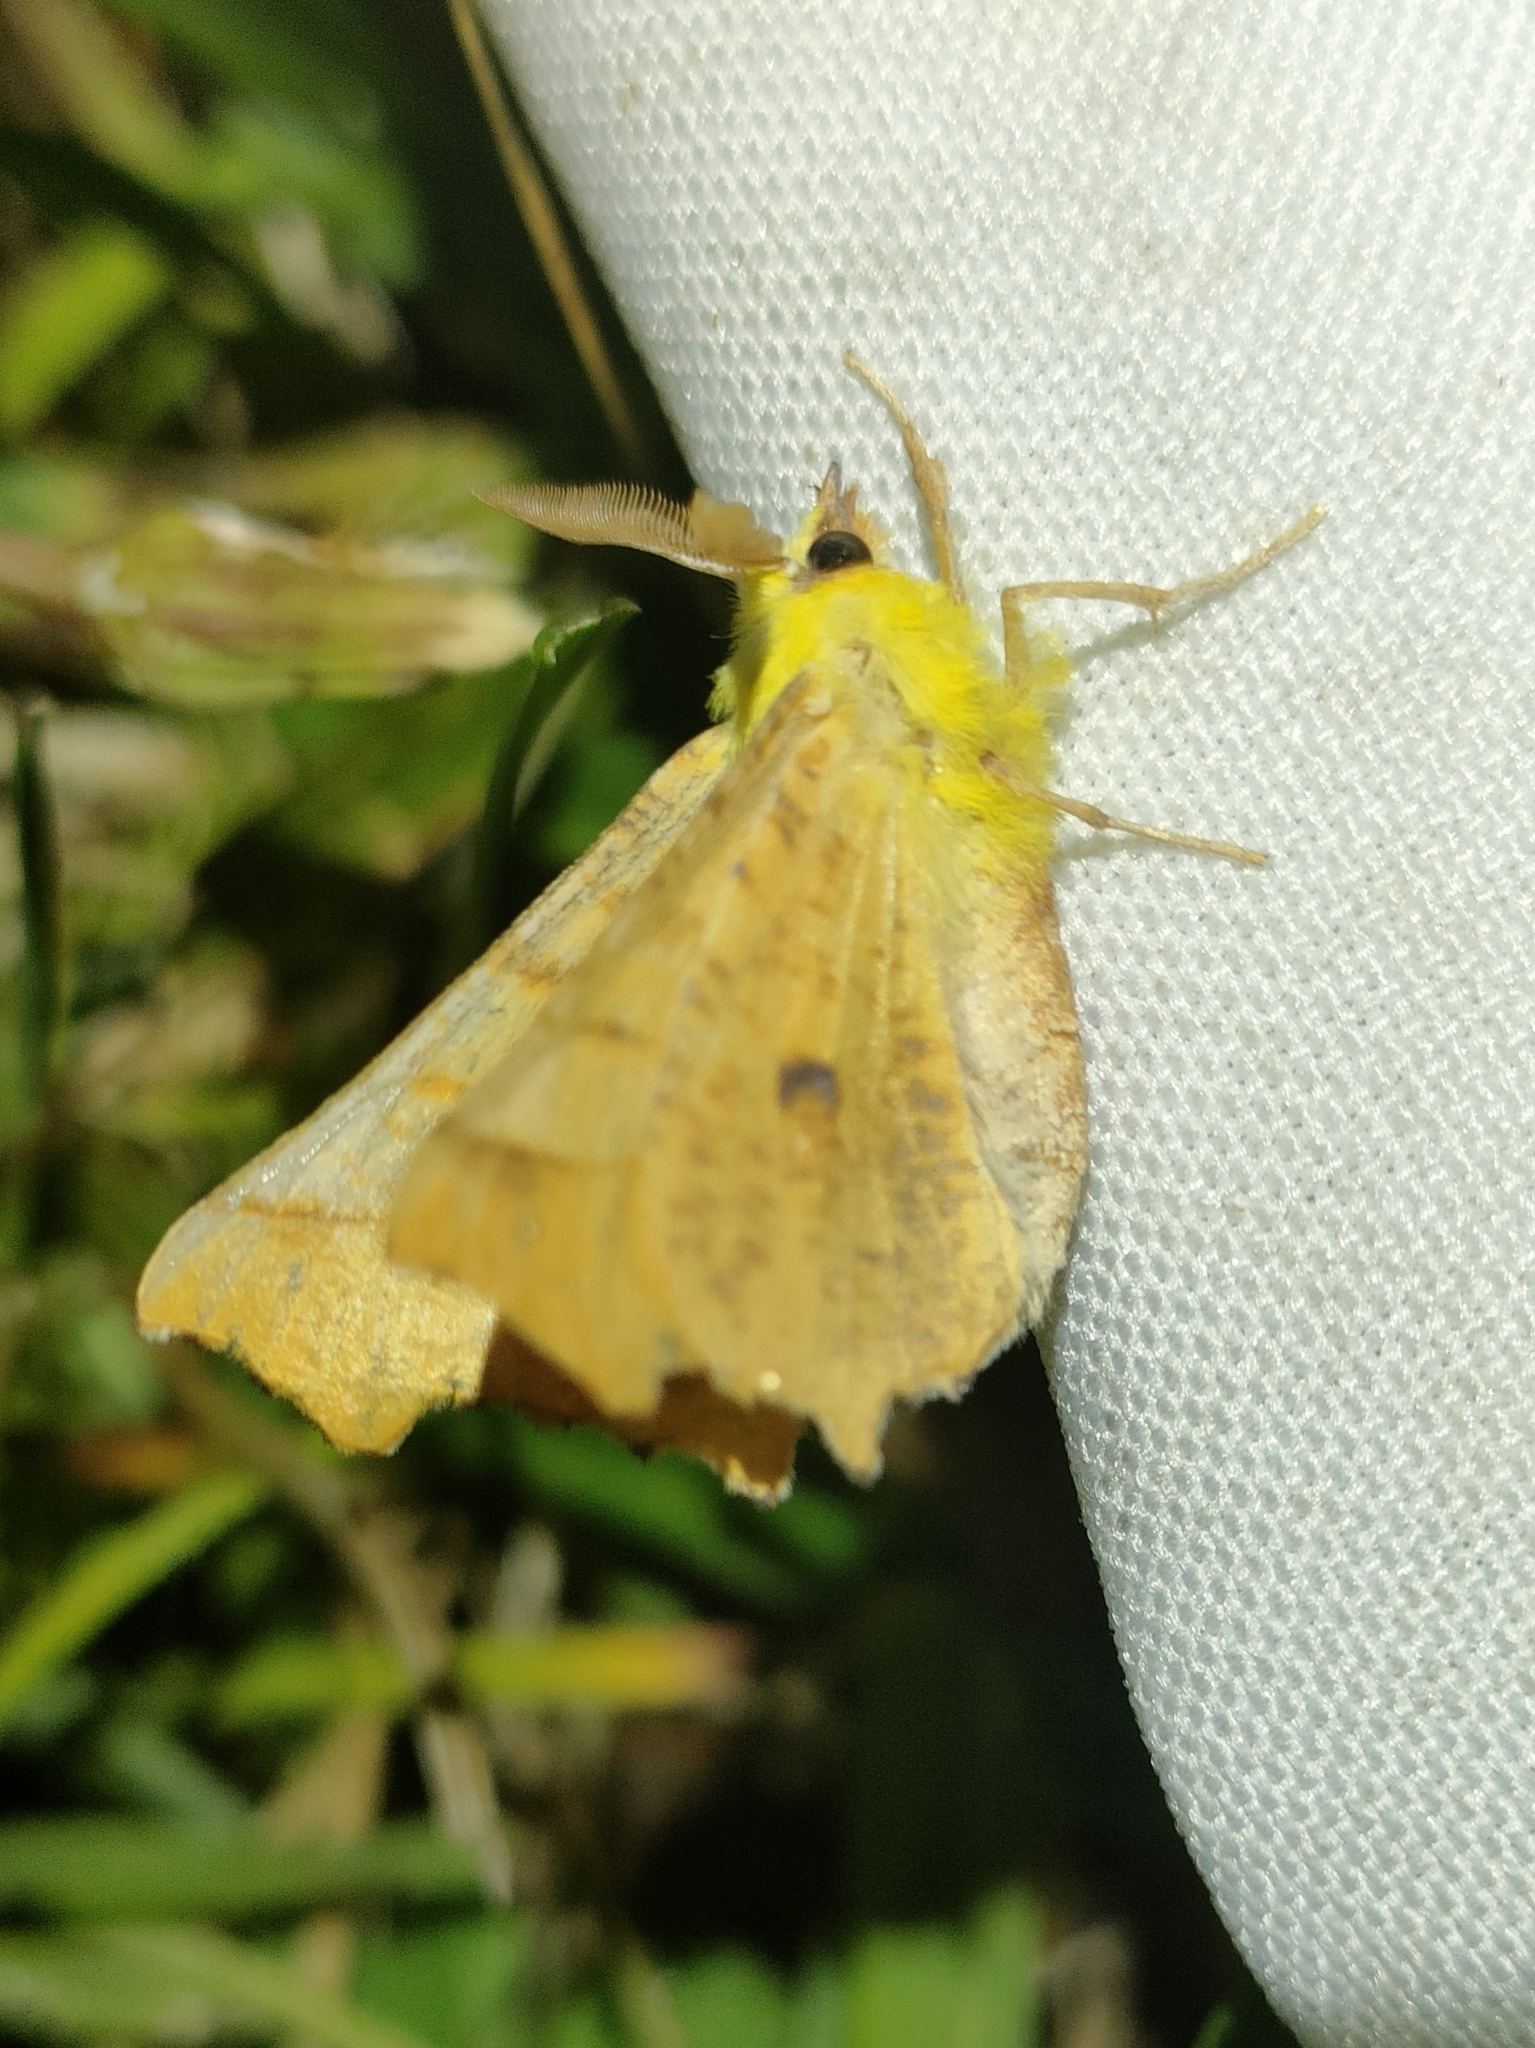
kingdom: Animalia
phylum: Arthropoda
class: Insecta
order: Lepidoptera
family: Geometridae
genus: Ennomos
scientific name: Ennomos alniaria
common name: Canary-shouldered thorn
